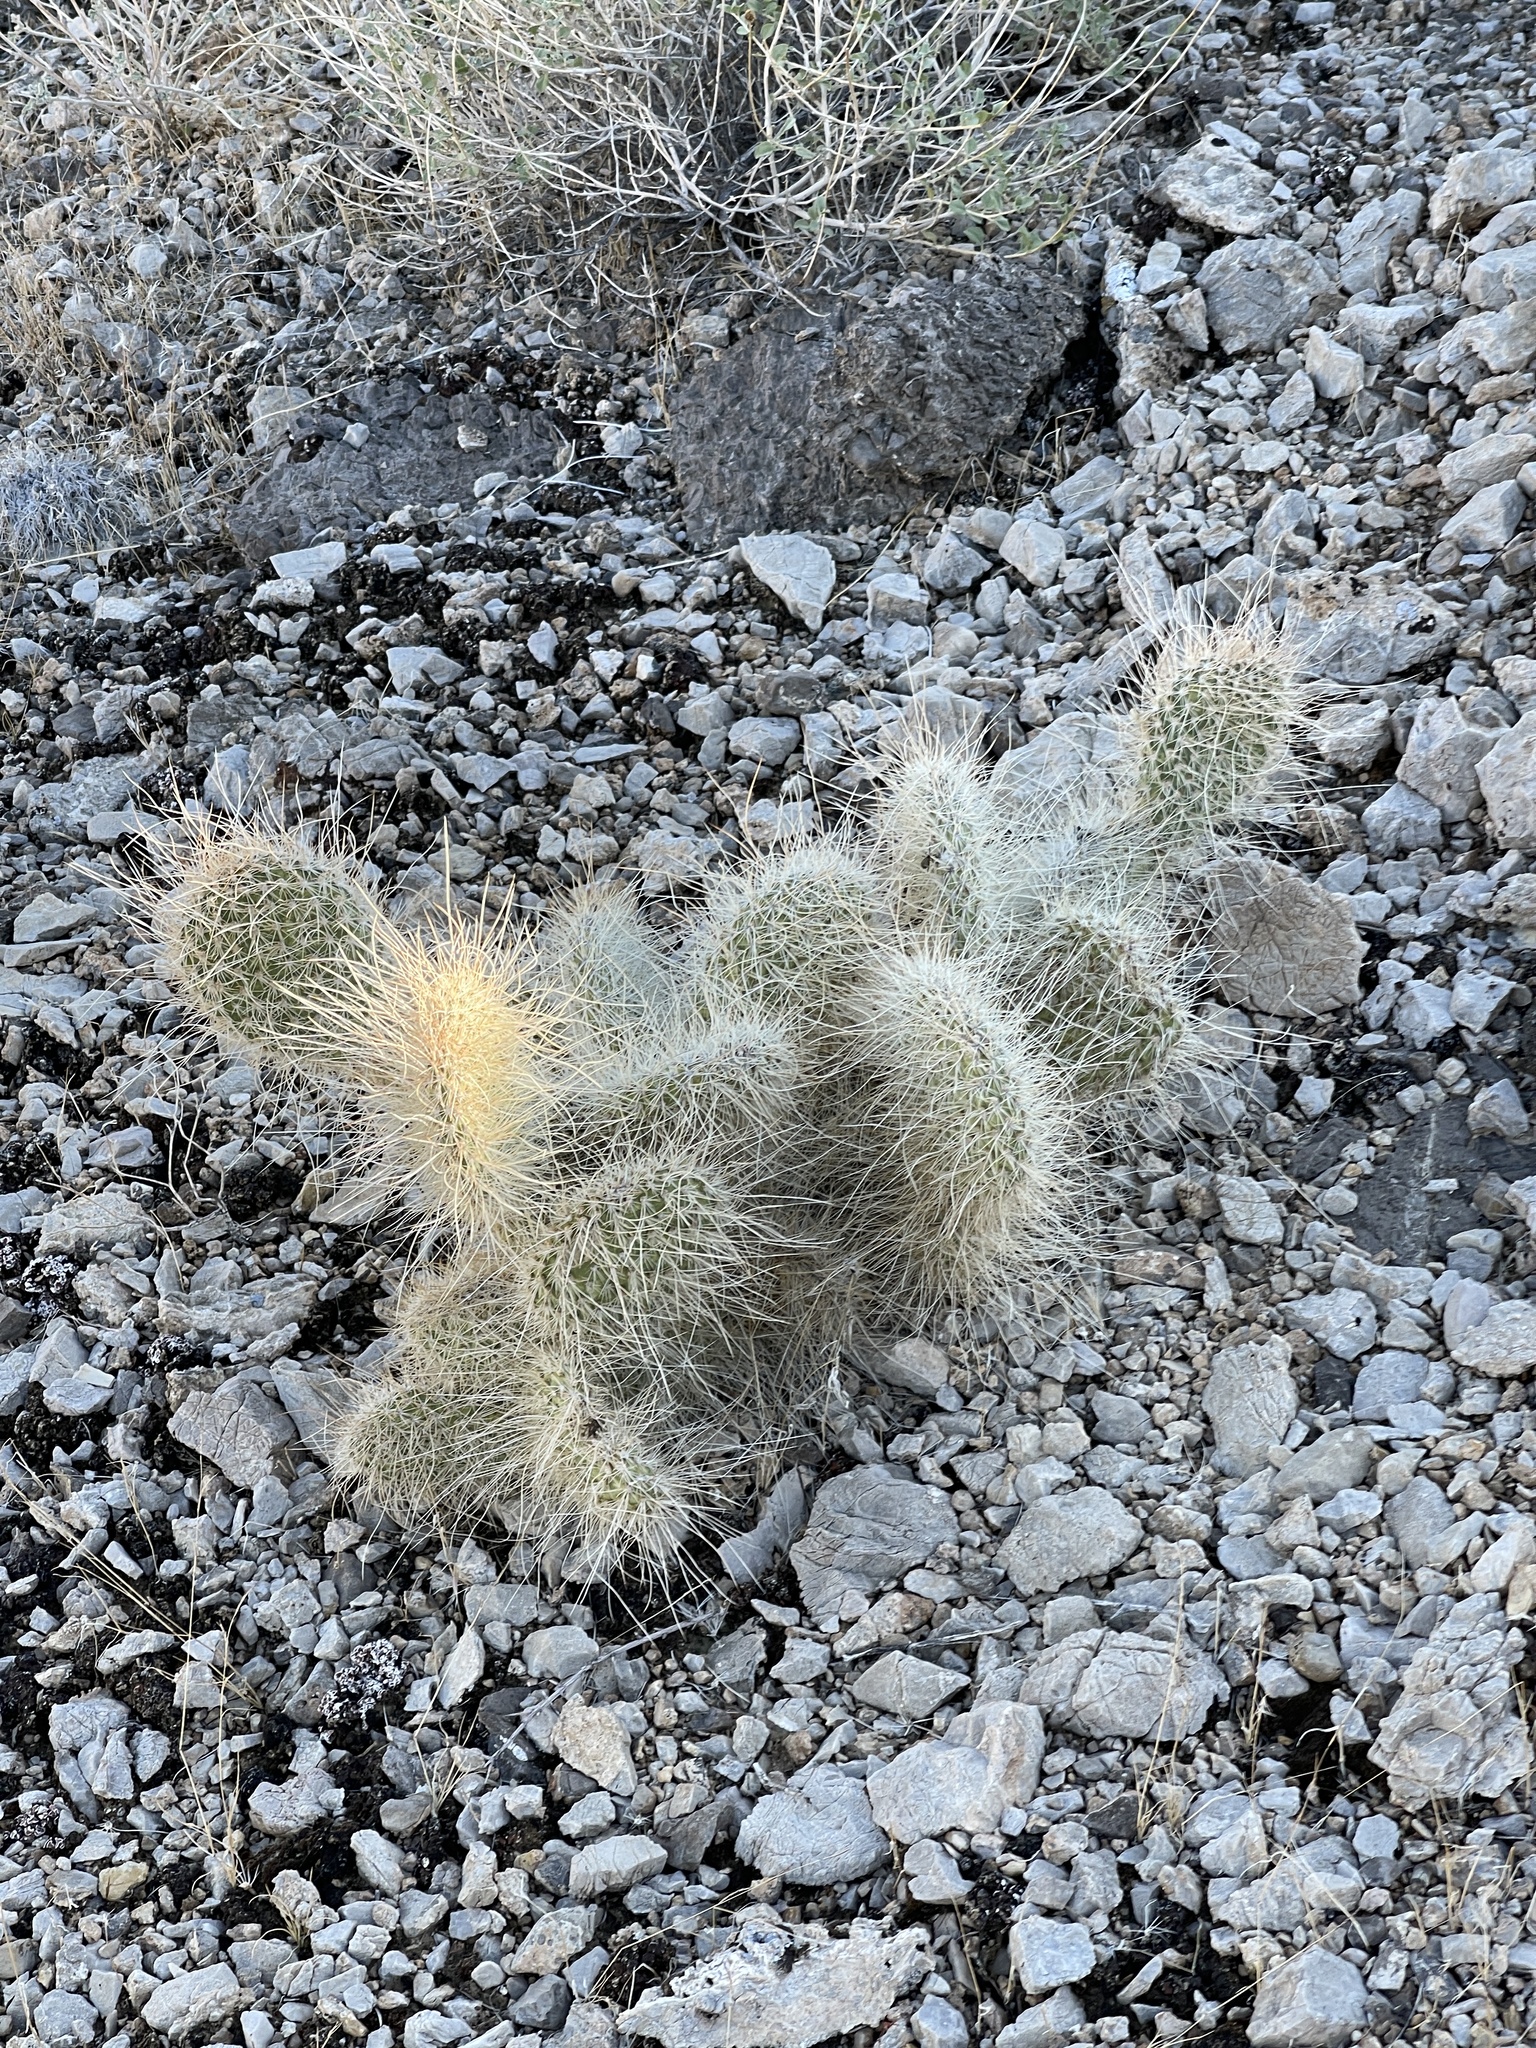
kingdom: Plantae
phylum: Tracheophyta
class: Magnoliopsida
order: Caryophyllales
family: Cactaceae
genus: Opuntia
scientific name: Opuntia polyacantha
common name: Plains prickly-pear
